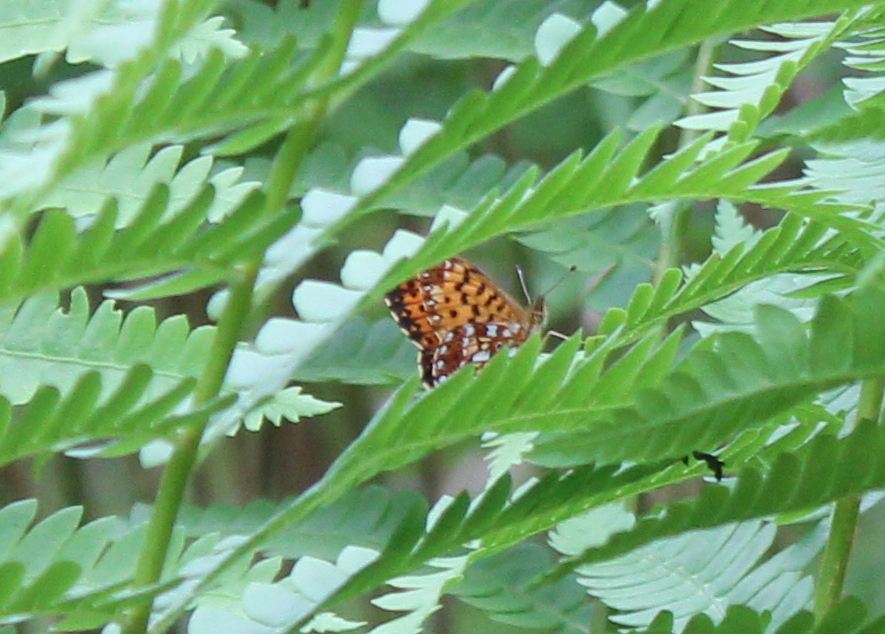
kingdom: Animalia
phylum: Arthropoda
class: Insecta
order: Lepidoptera
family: Nymphalidae
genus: Boloria
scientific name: Boloria
